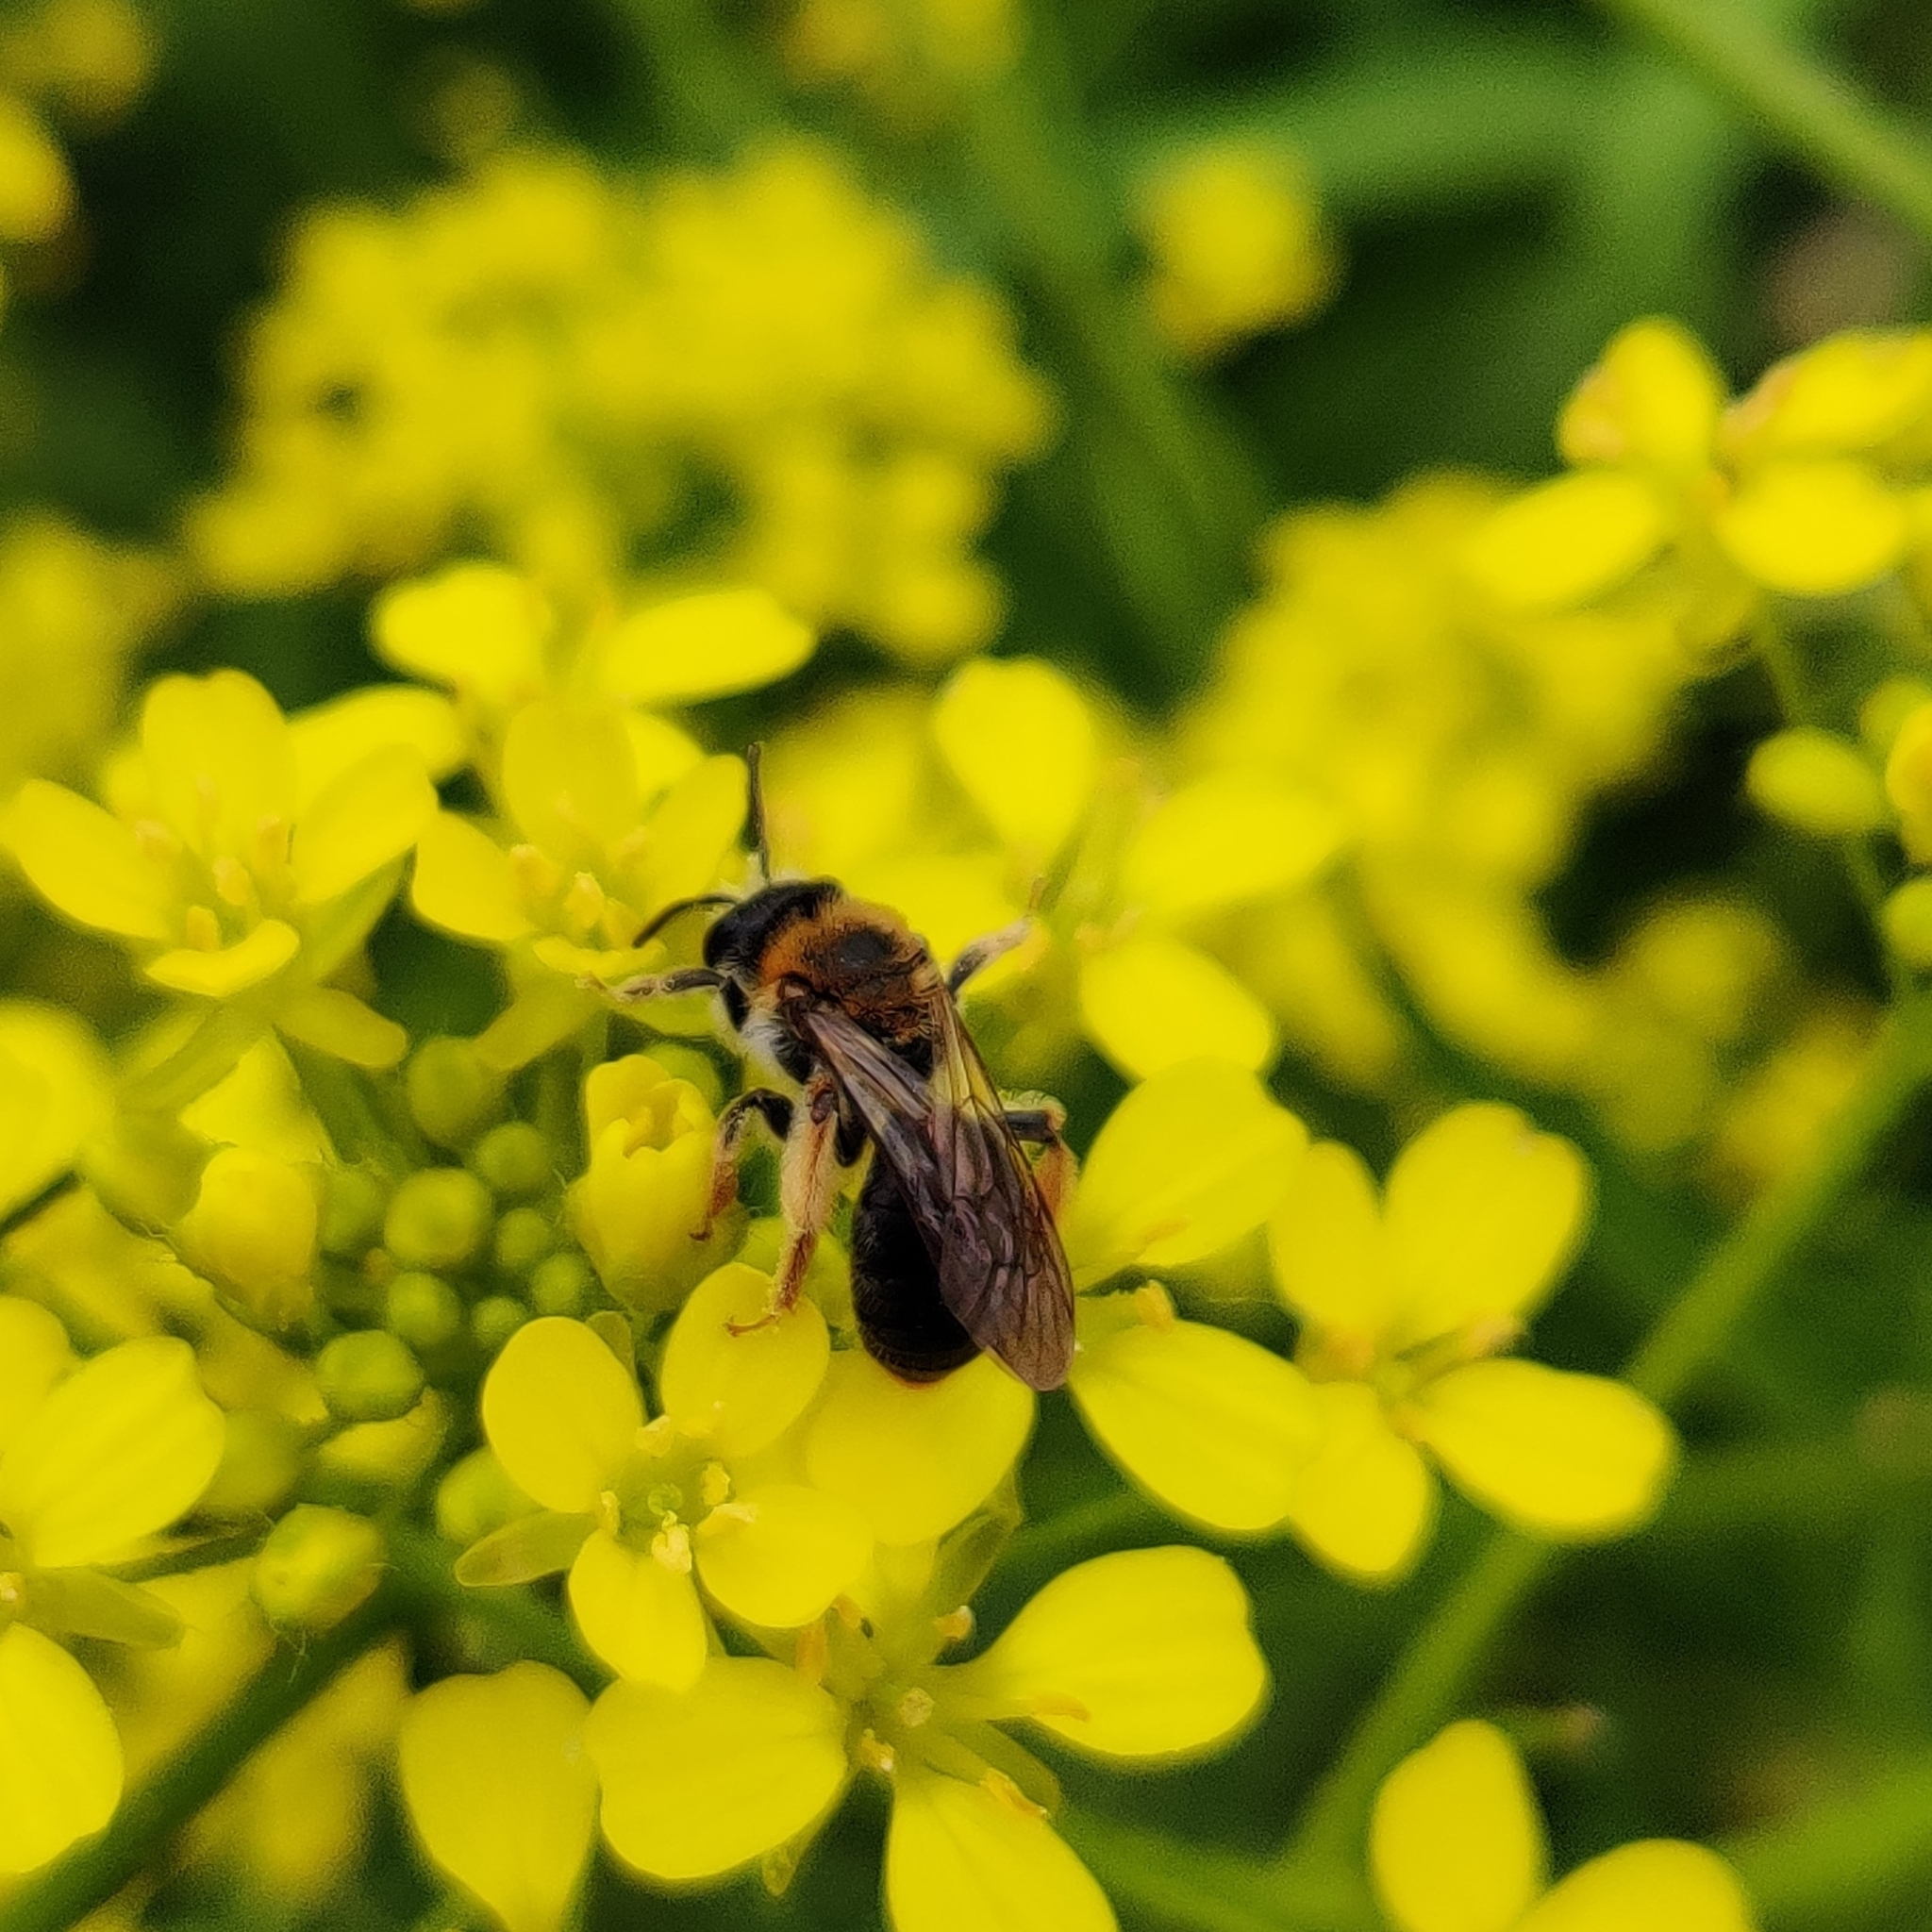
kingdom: Animalia
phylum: Arthropoda
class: Insecta
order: Hymenoptera
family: Andrenidae
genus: Andrena
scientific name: Andrena haemorrhoa
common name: Early mining bee
